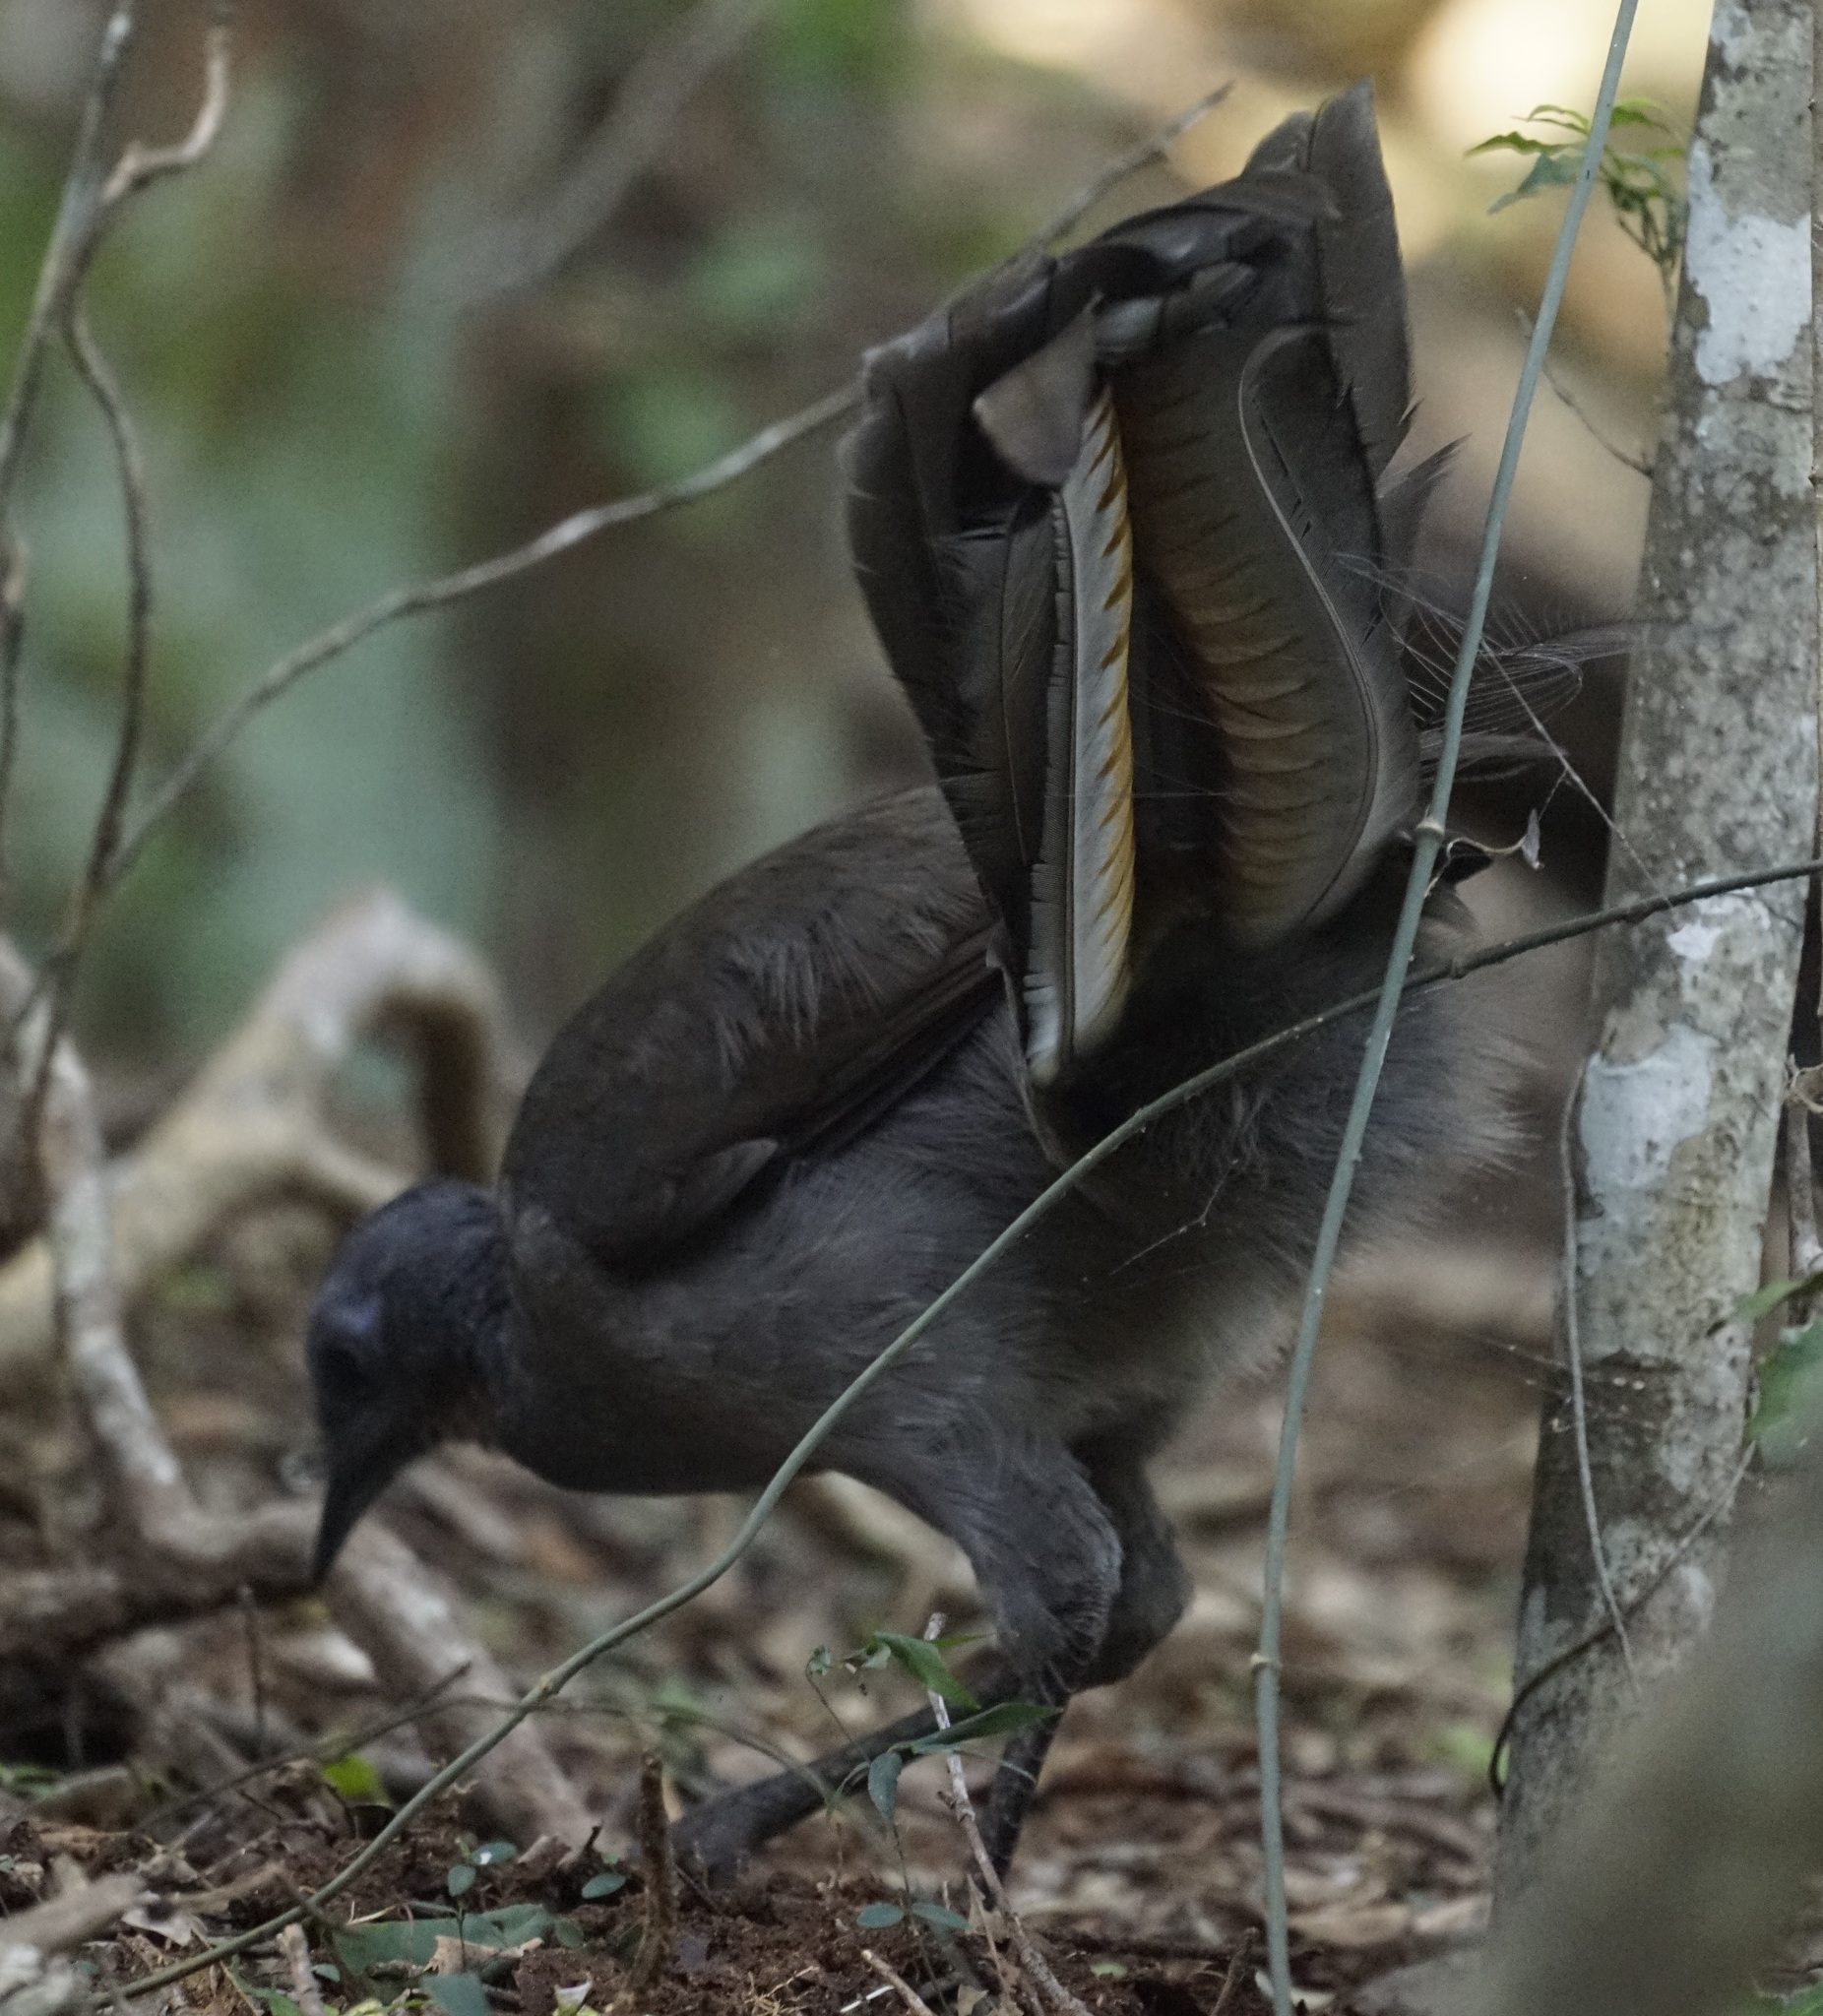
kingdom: Animalia
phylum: Chordata
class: Aves
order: Passeriformes
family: Menuridae
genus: Menura
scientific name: Menura novaehollandiae
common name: Superb lyrebird
